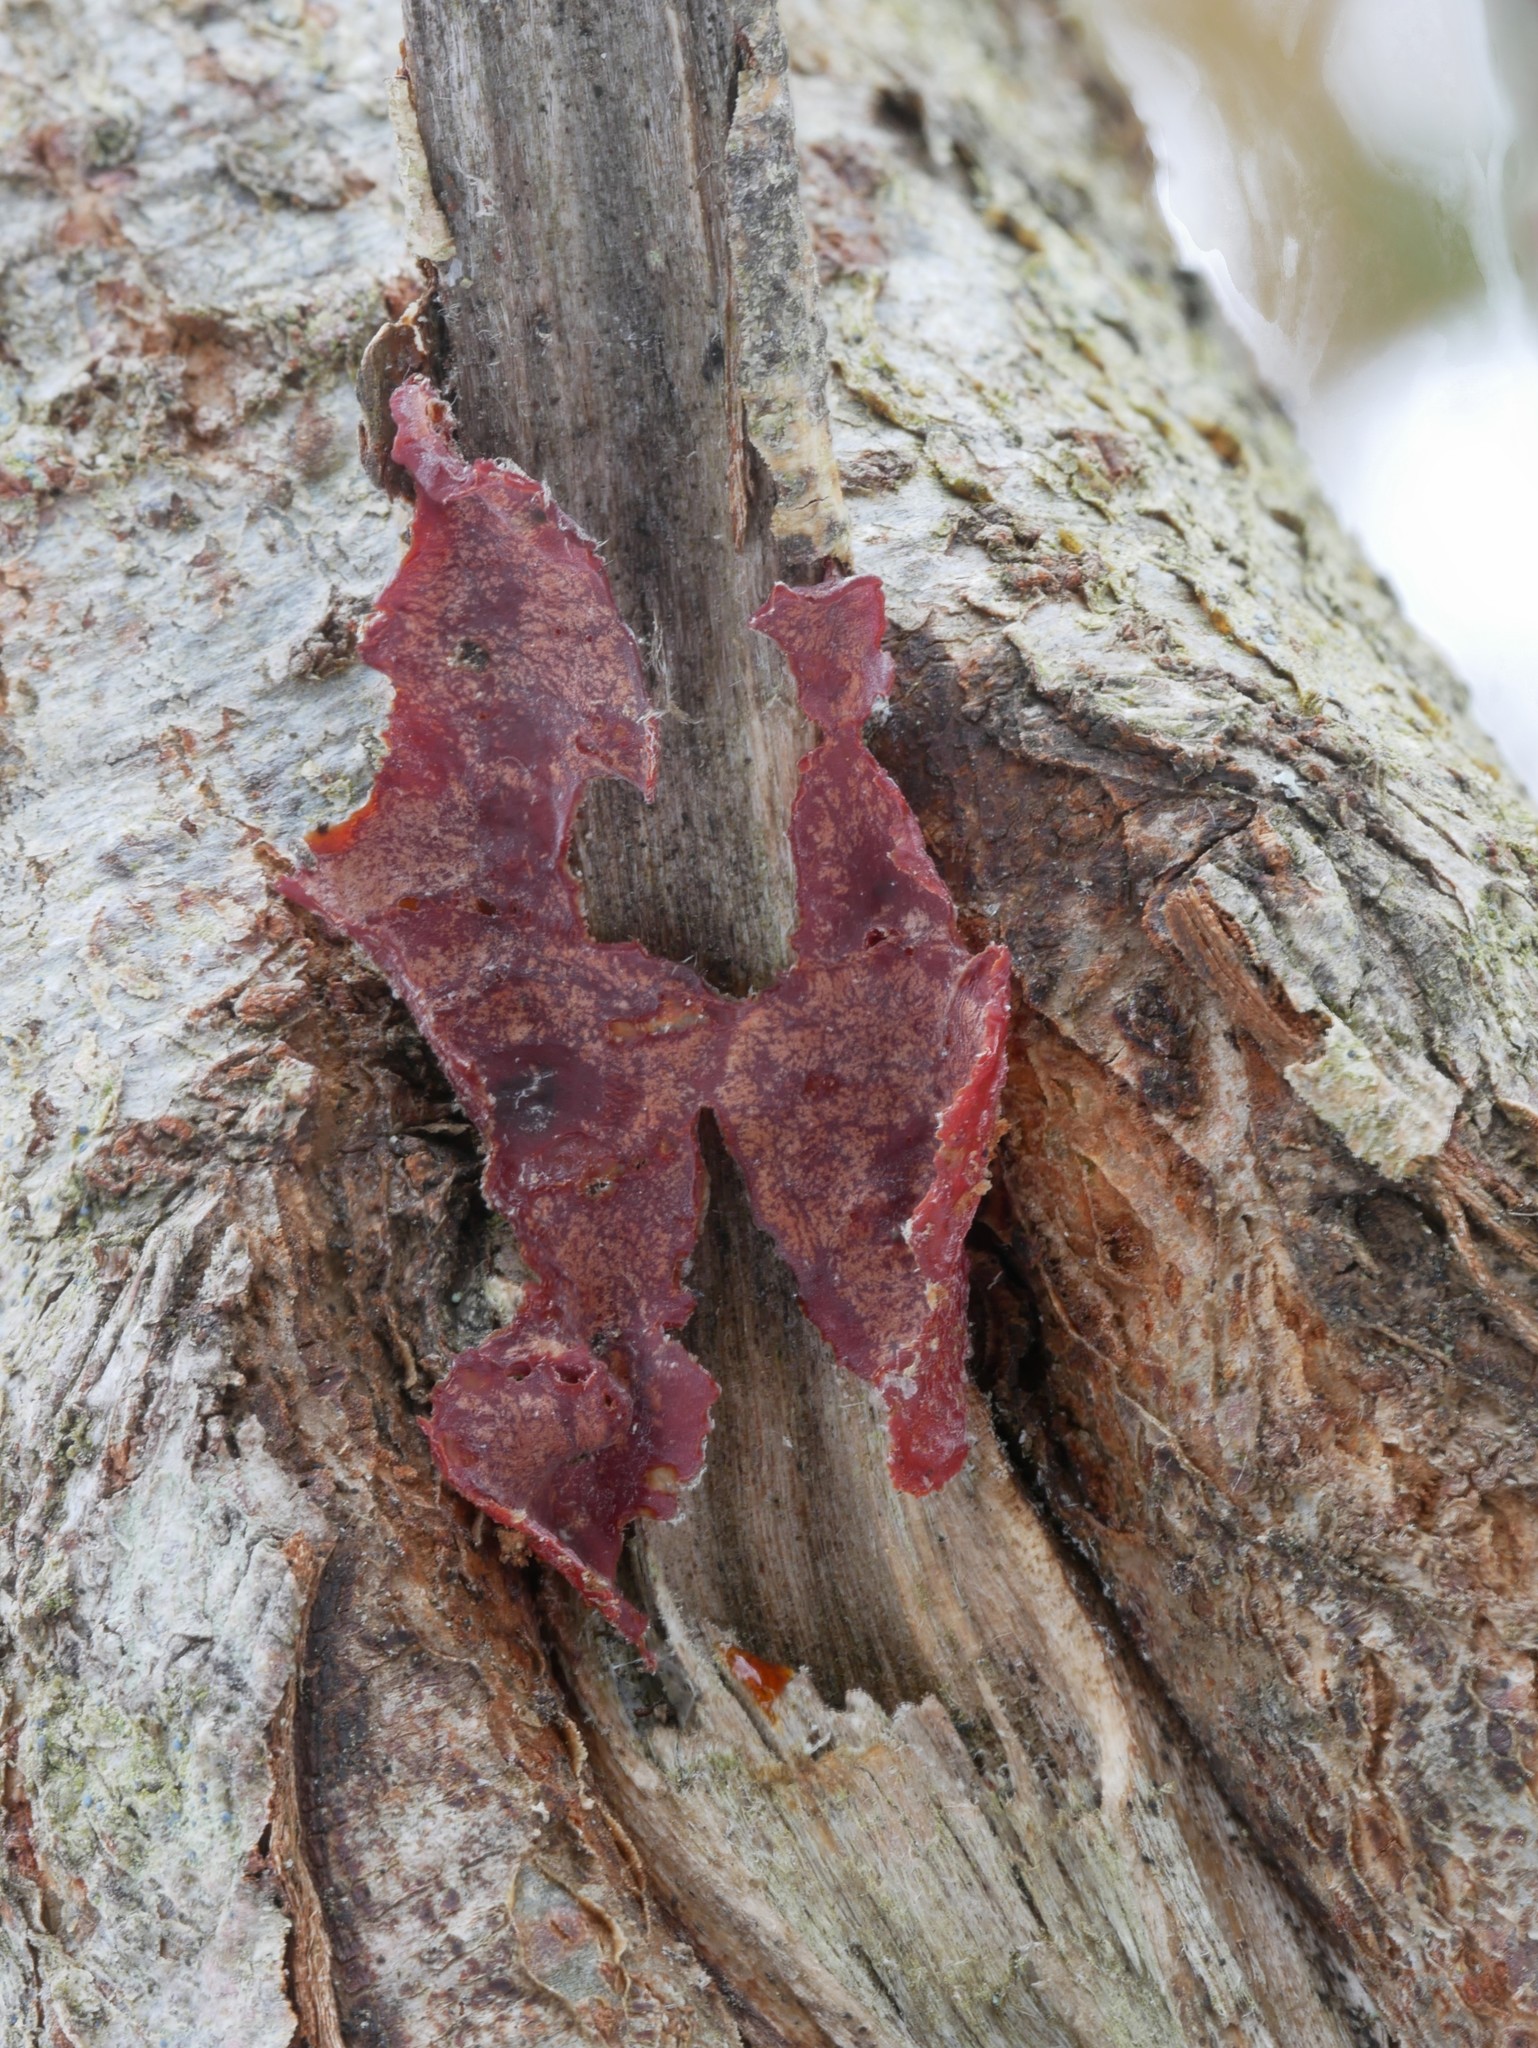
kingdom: Fungi
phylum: Basidiomycota
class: Agaricomycetes
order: Corticiales
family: Vuilleminiaceae
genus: Cytidia
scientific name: Cytidia salicina
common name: Scarlet splash
